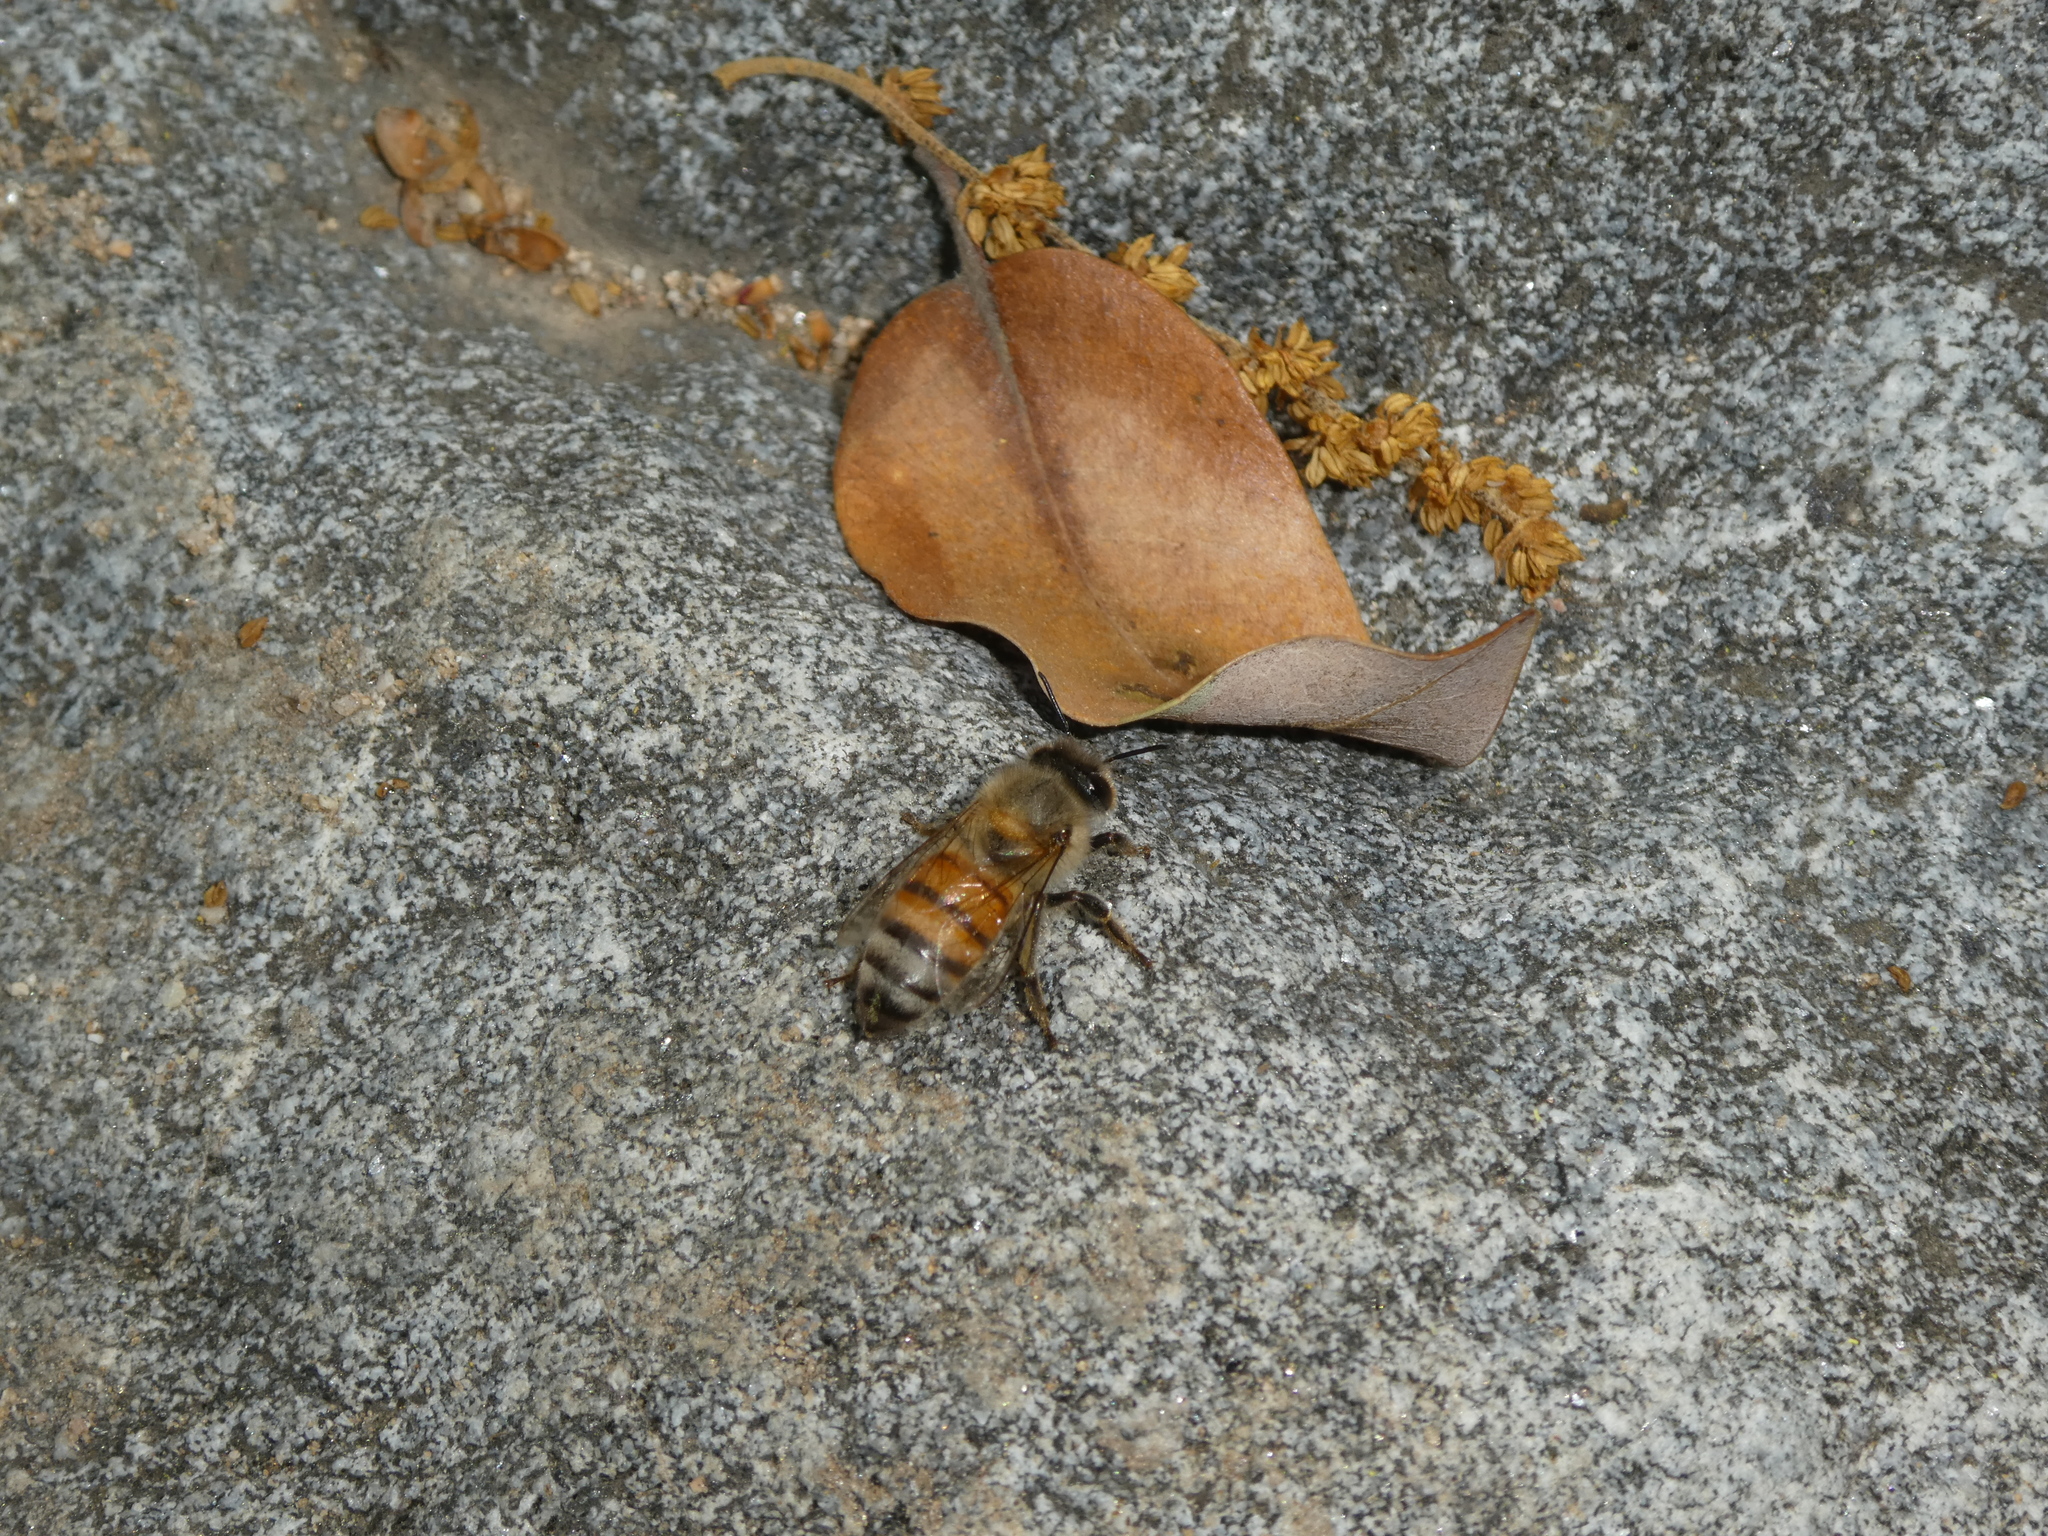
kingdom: Animalia
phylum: Arthropoda
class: Insecta
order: Hymenoptera
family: Apidae
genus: Apis
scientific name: Apis mellifera
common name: Honey bee
